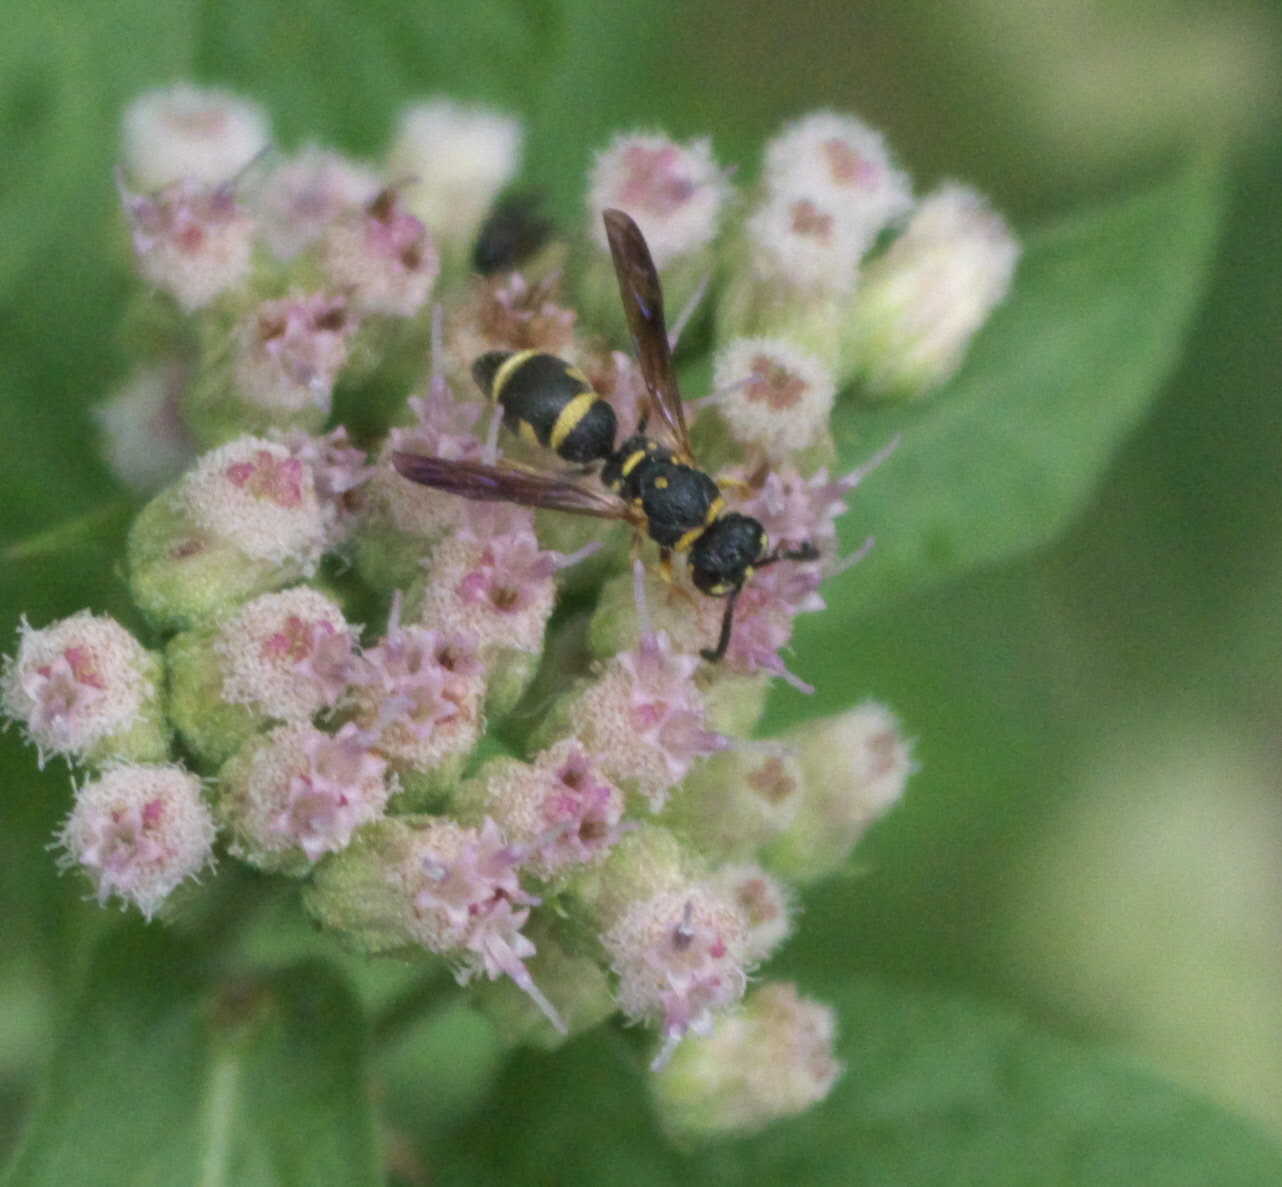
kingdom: Animalia
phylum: Arthropoda
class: Insecta
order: Hymenoptera
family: Eumenidae
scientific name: Eumenidae
